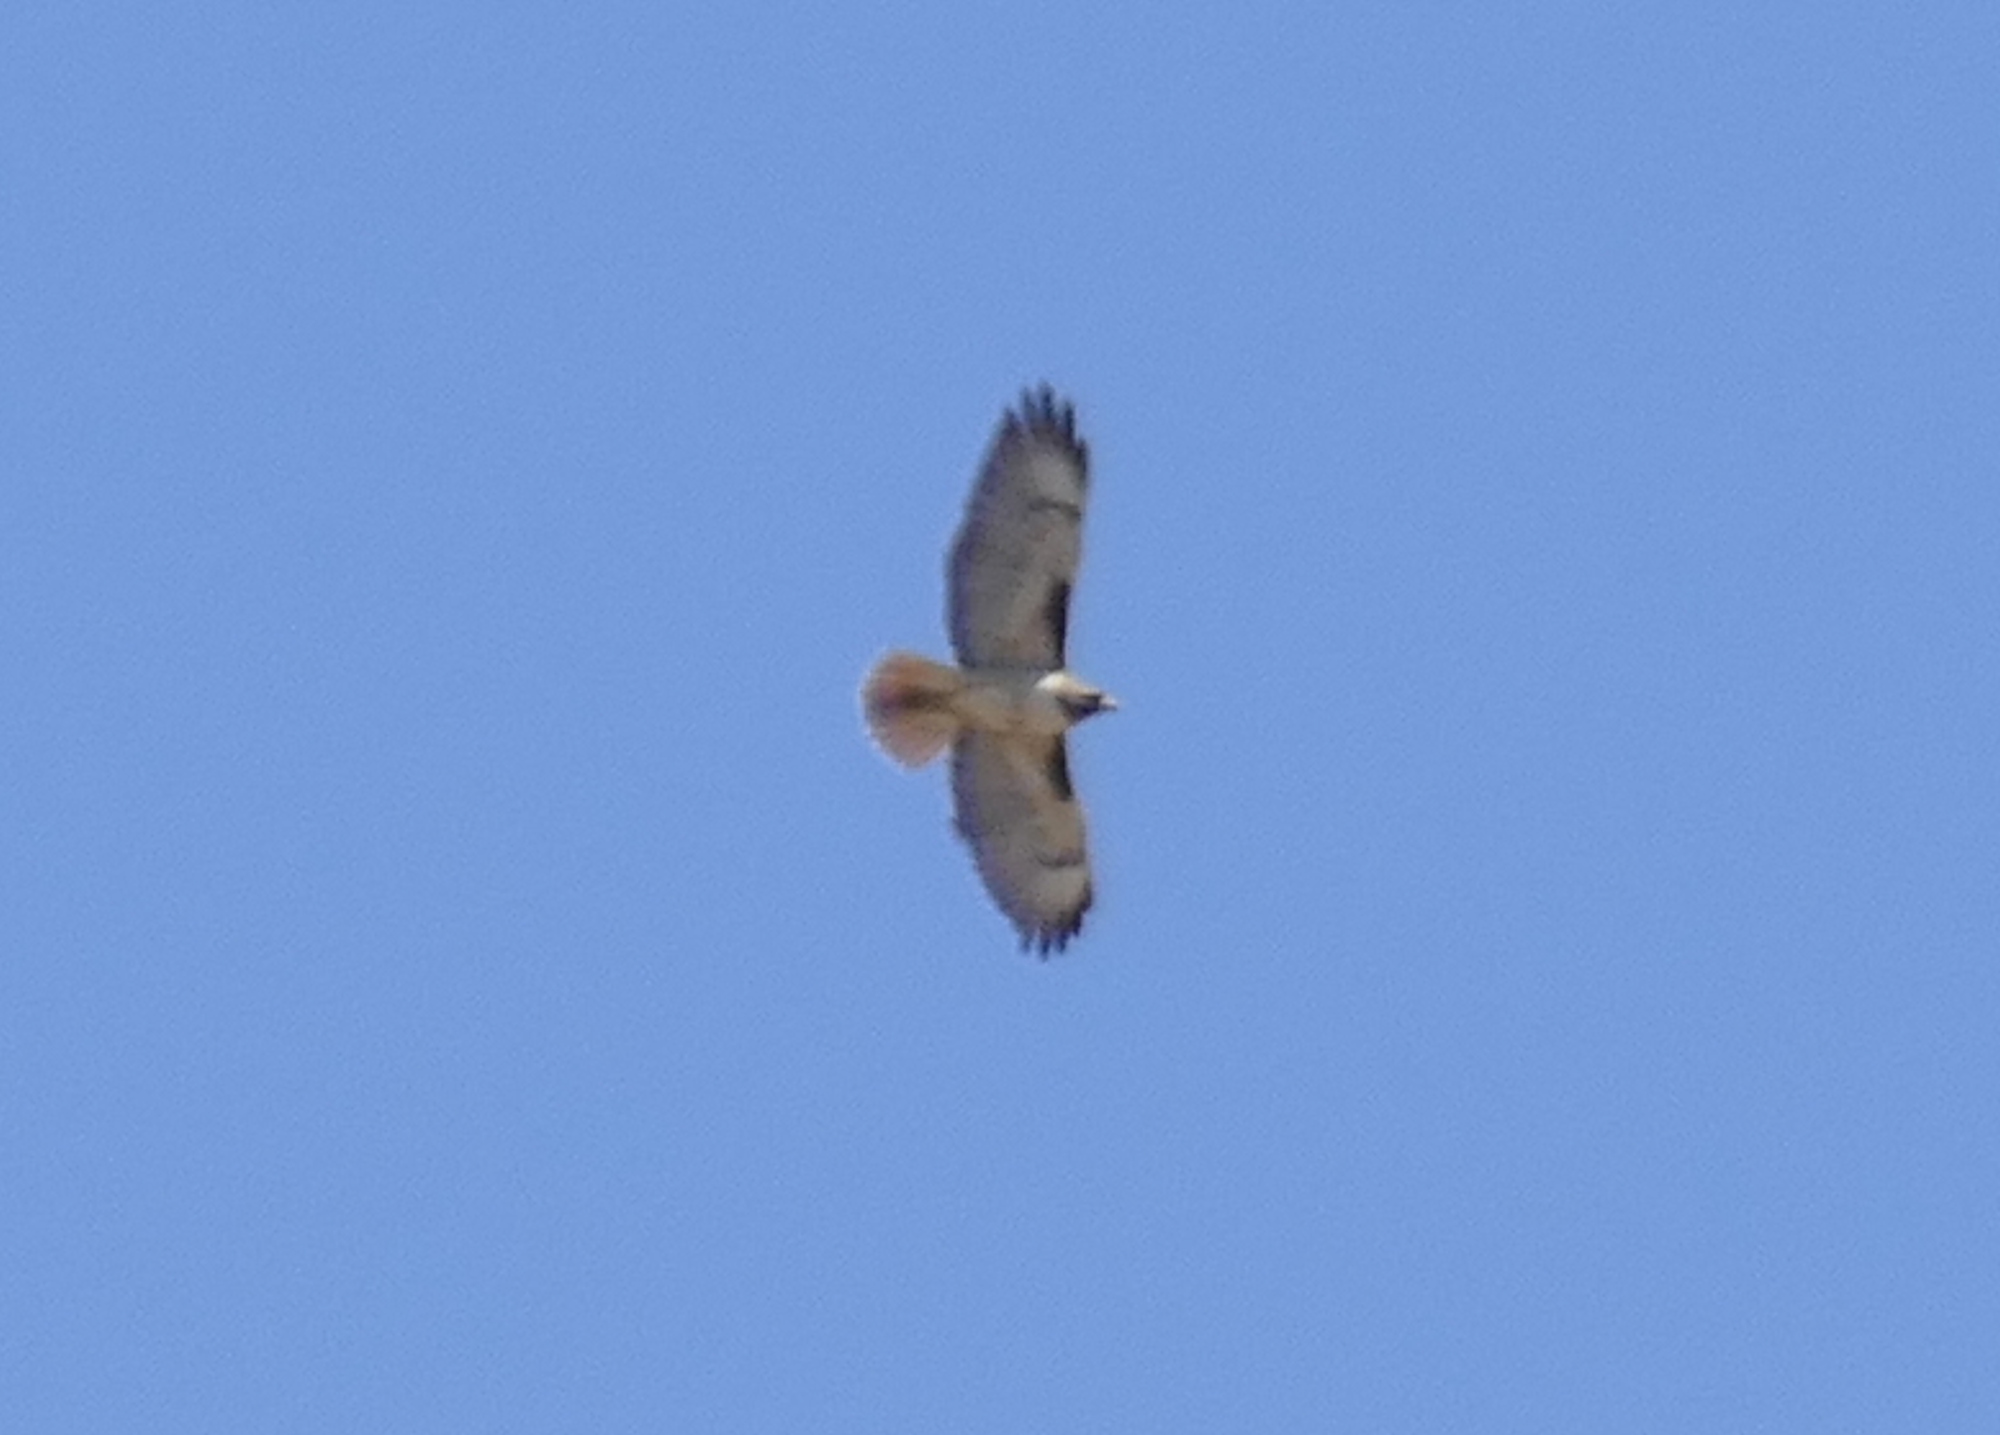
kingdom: Animalia
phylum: Chordata
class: Aves
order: Accipitriformes
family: Accipitridae
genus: Buteo
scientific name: Buteo jamaicensis
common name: Red-tailed hawk
